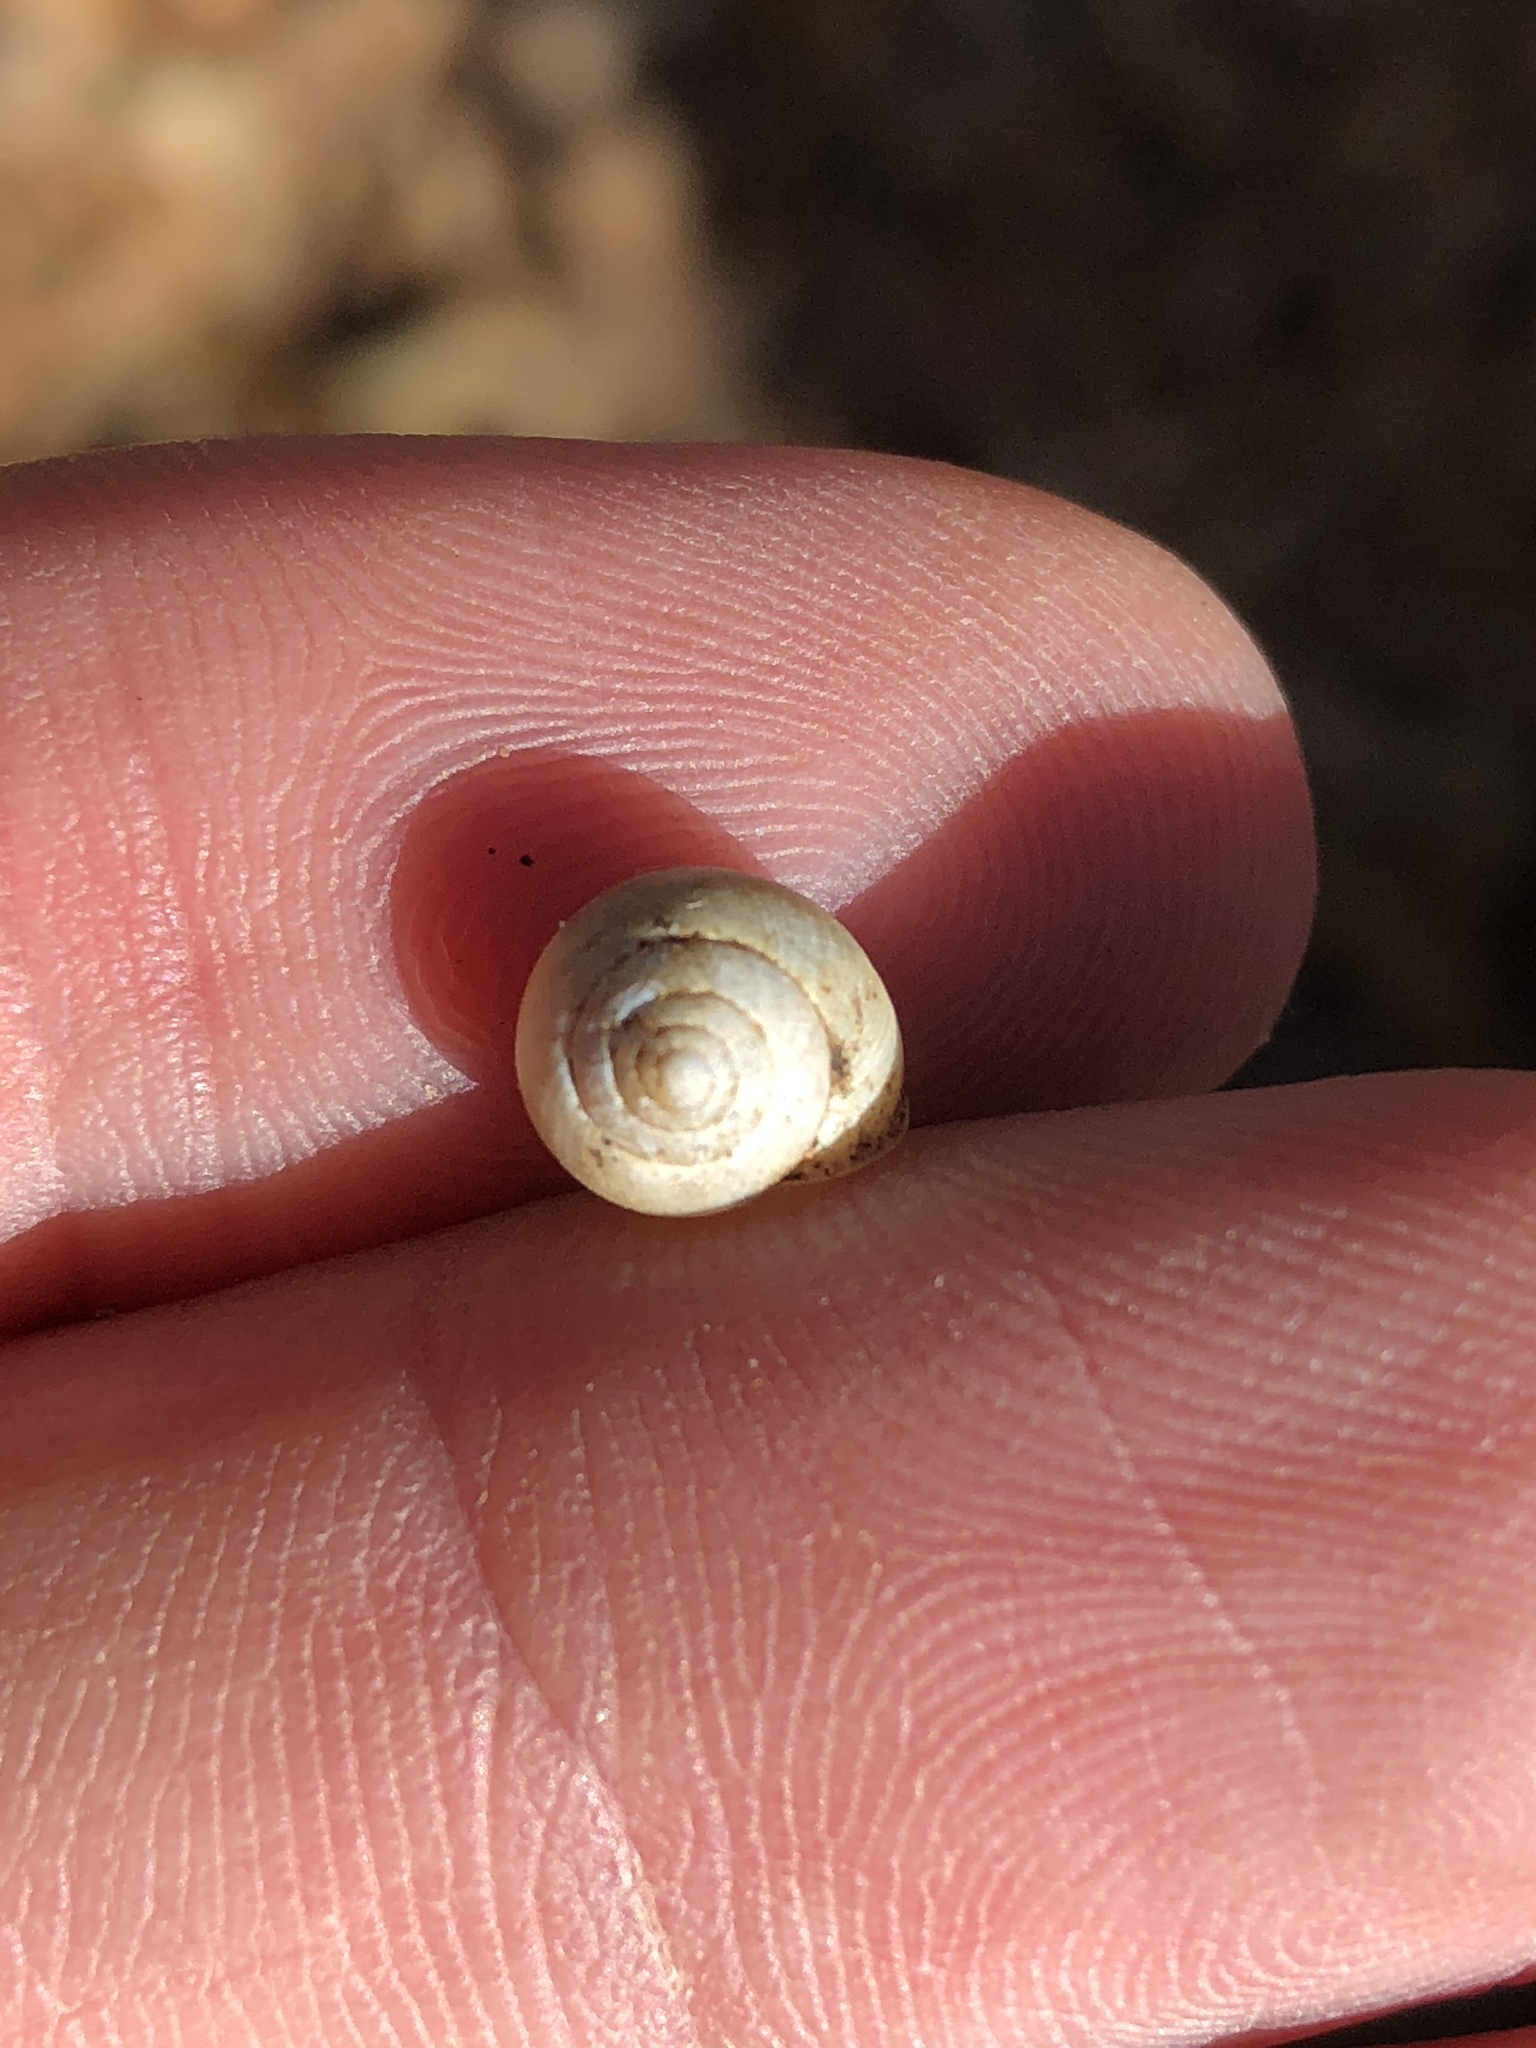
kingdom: Animalia
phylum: Mollusca
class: Gastropoda
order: Cycloneritida
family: Helicinidae
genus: Helicina
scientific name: Helicina orbiculata
